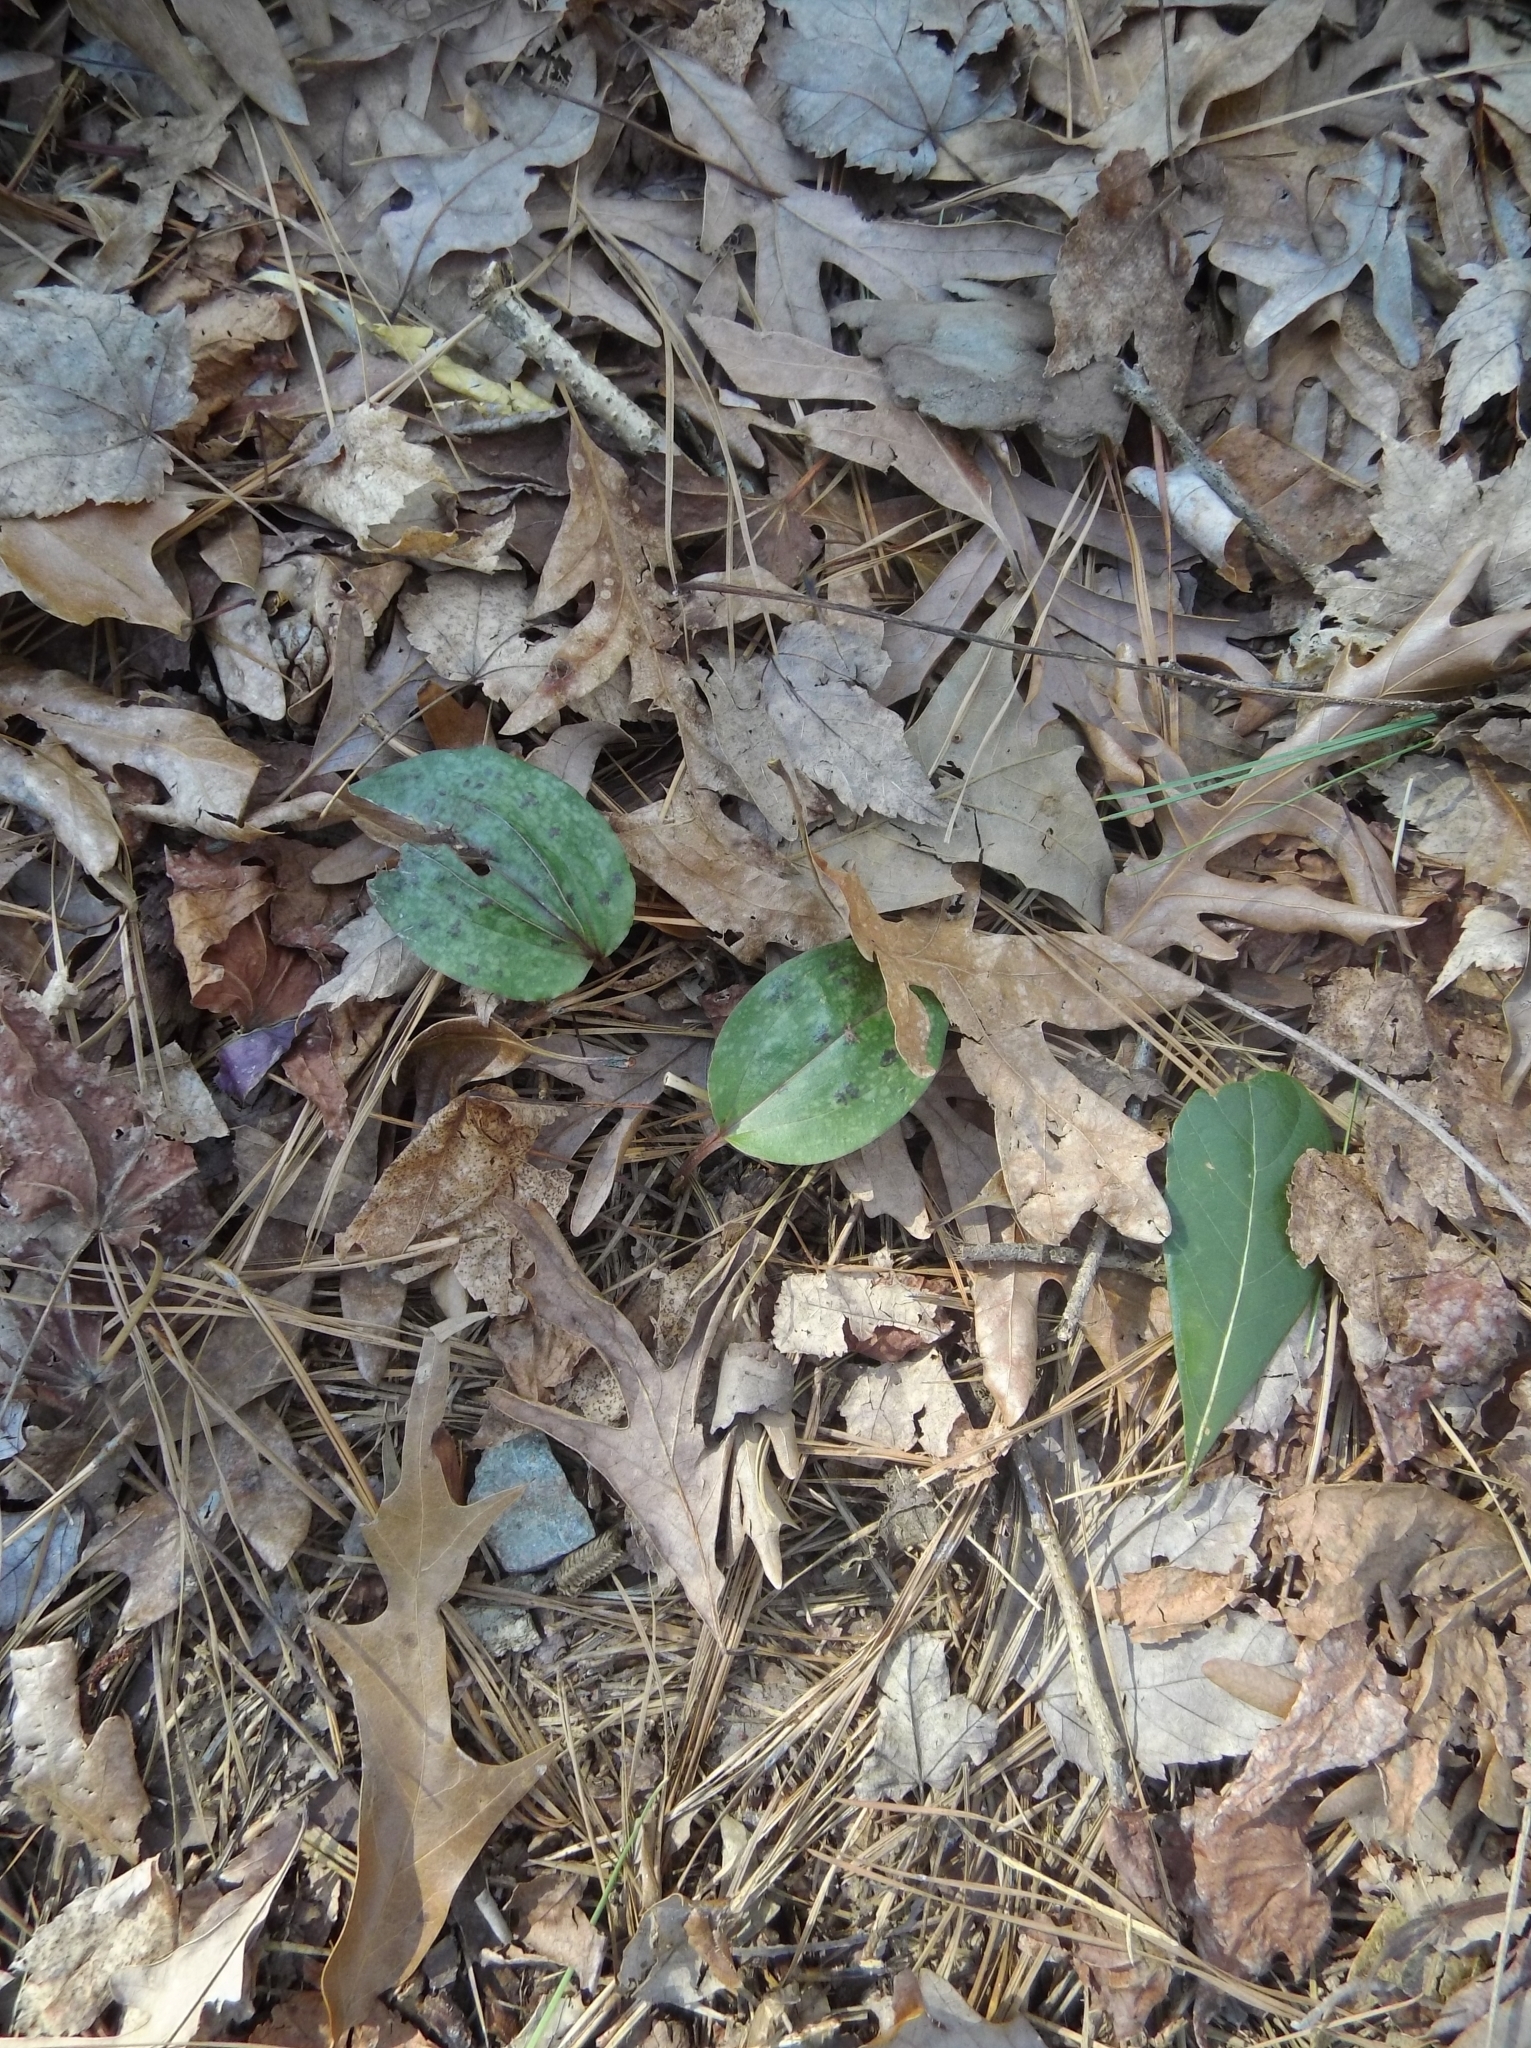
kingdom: Plantae
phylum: Tracheophyta
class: Liliopsida
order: Asparagales
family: Orchidaceae
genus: Tipularia
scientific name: Tipularia discolor
